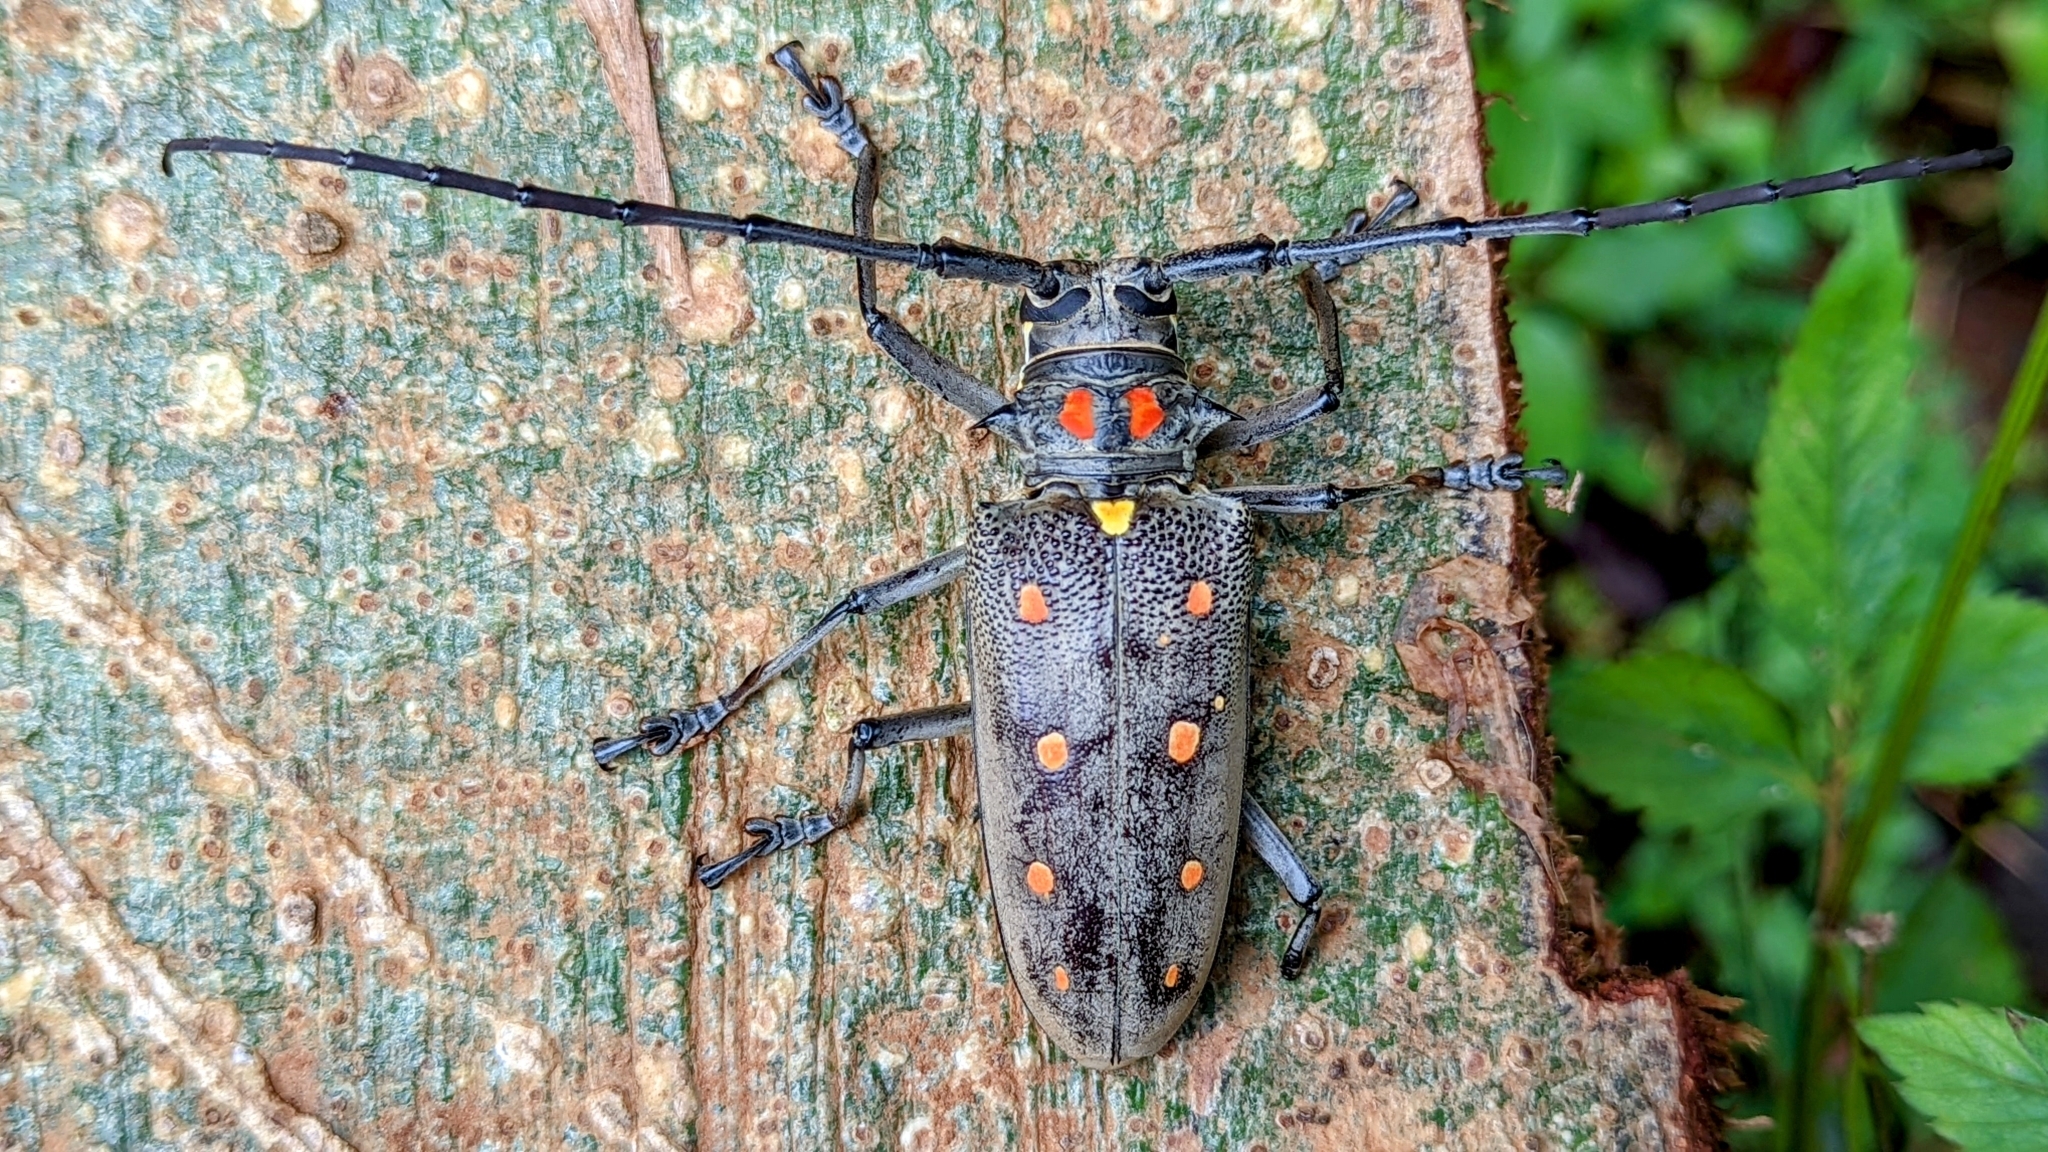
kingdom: Animalia
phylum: Arthropoda
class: Insecta
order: Coleoptera
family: Cerambycidae
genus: Batocera
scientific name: Batocera parryi
